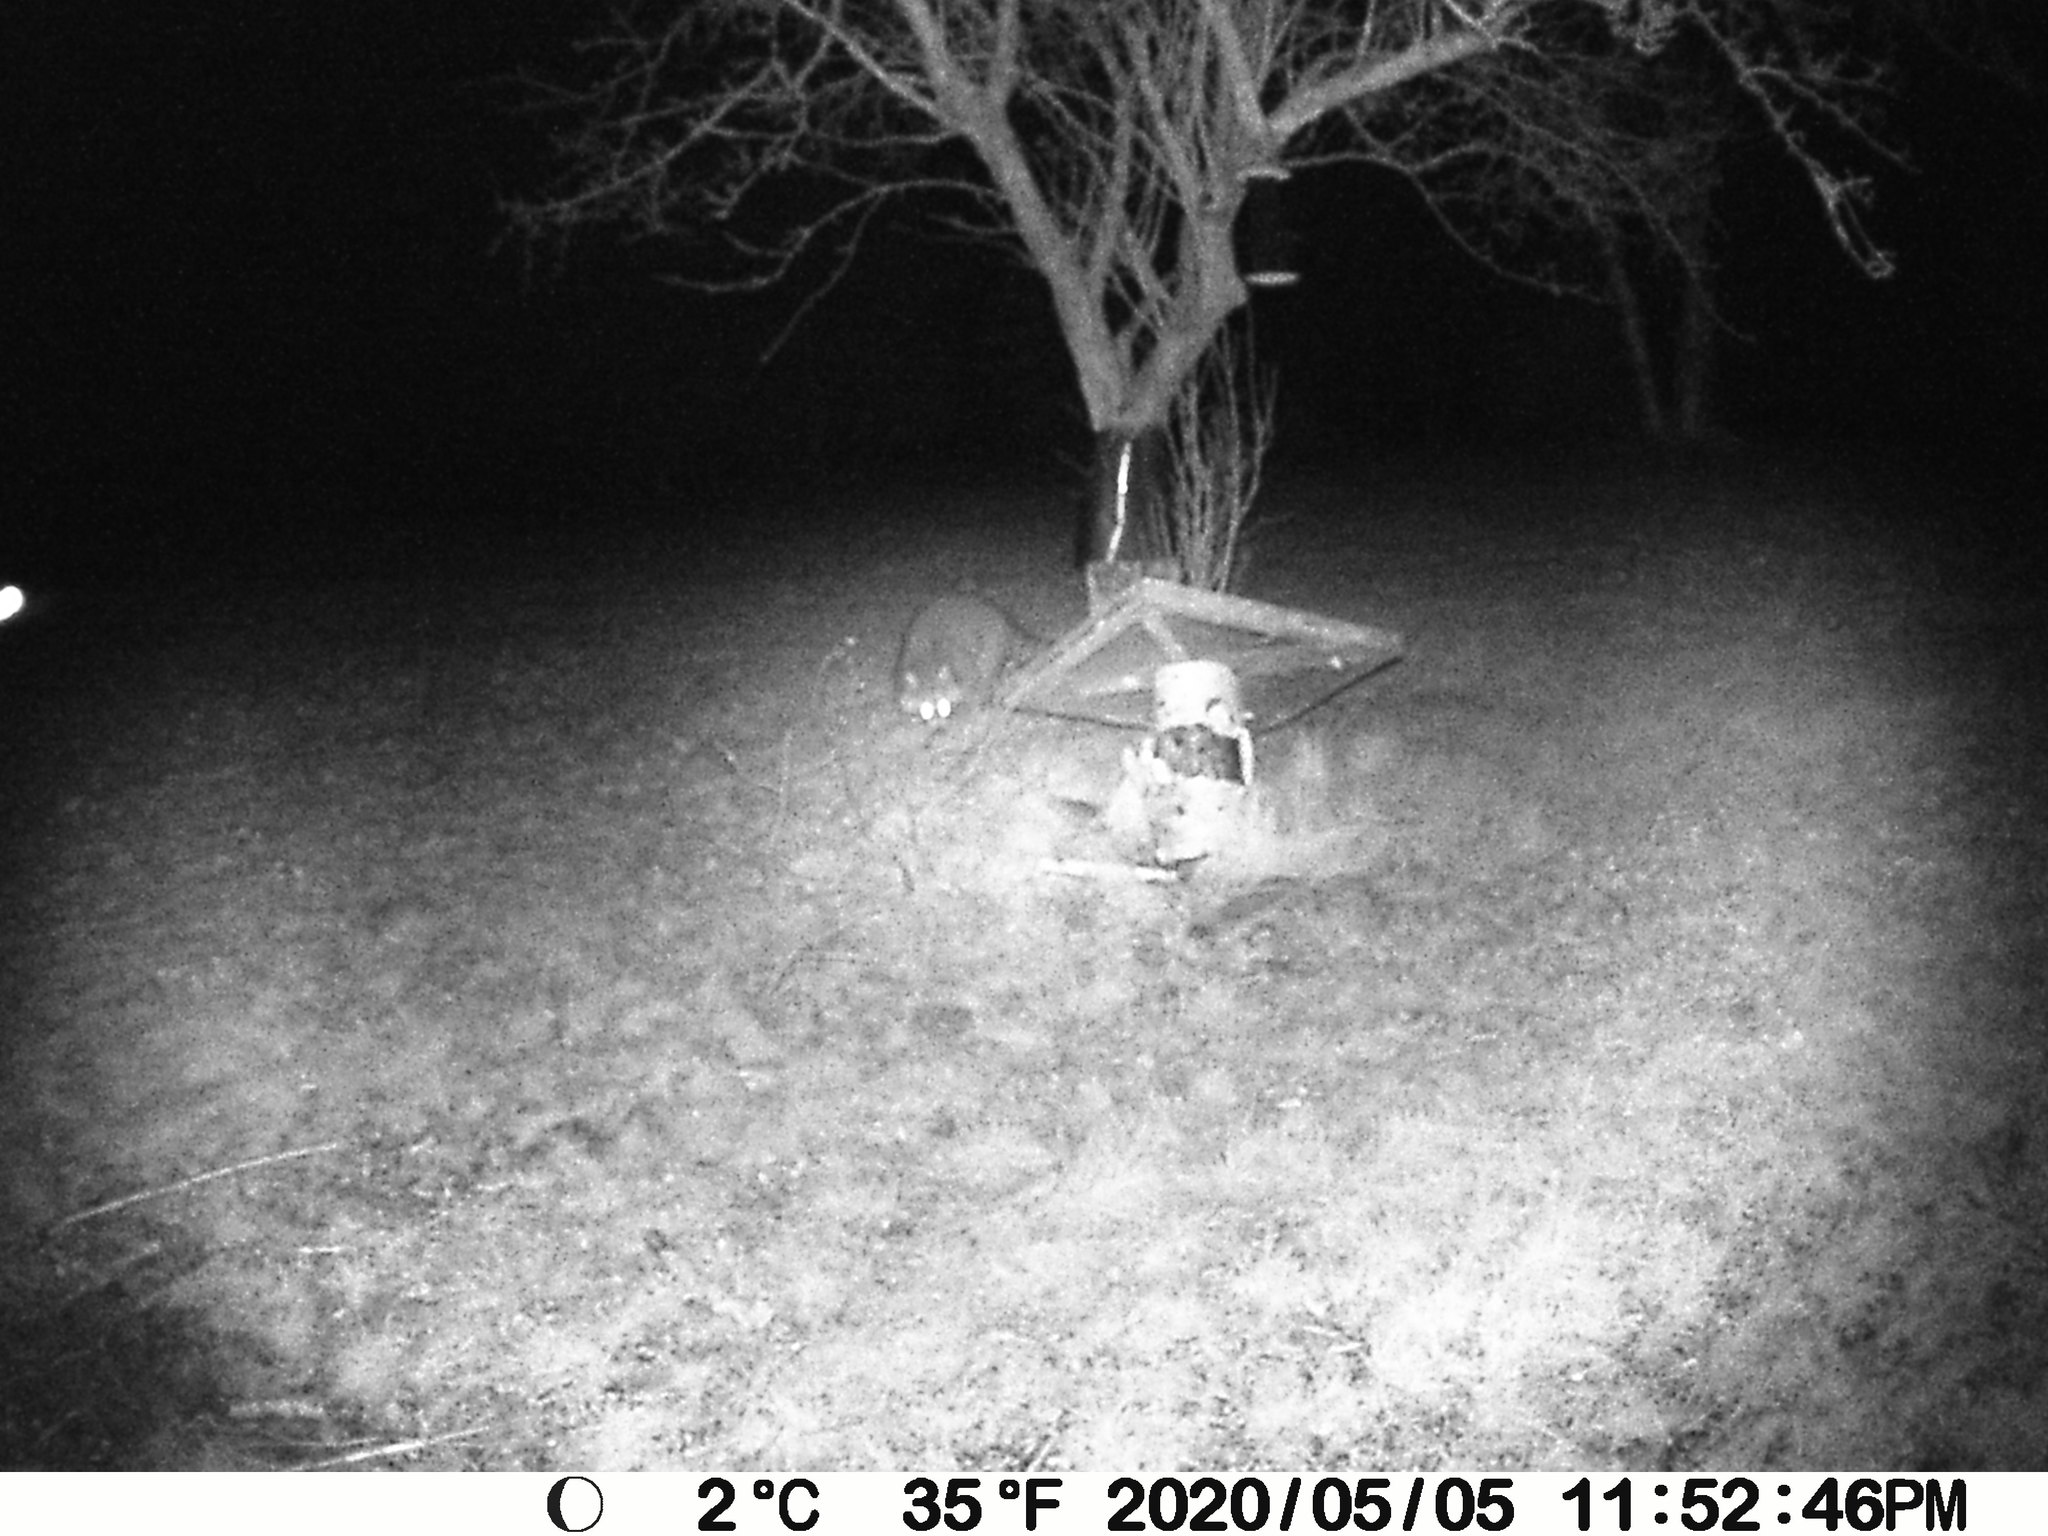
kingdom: Animalia
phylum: Chordata
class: Mammalia
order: Carnivora
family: Procyonidae
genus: Procyon
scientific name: Procyon lotor
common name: Raccoon
